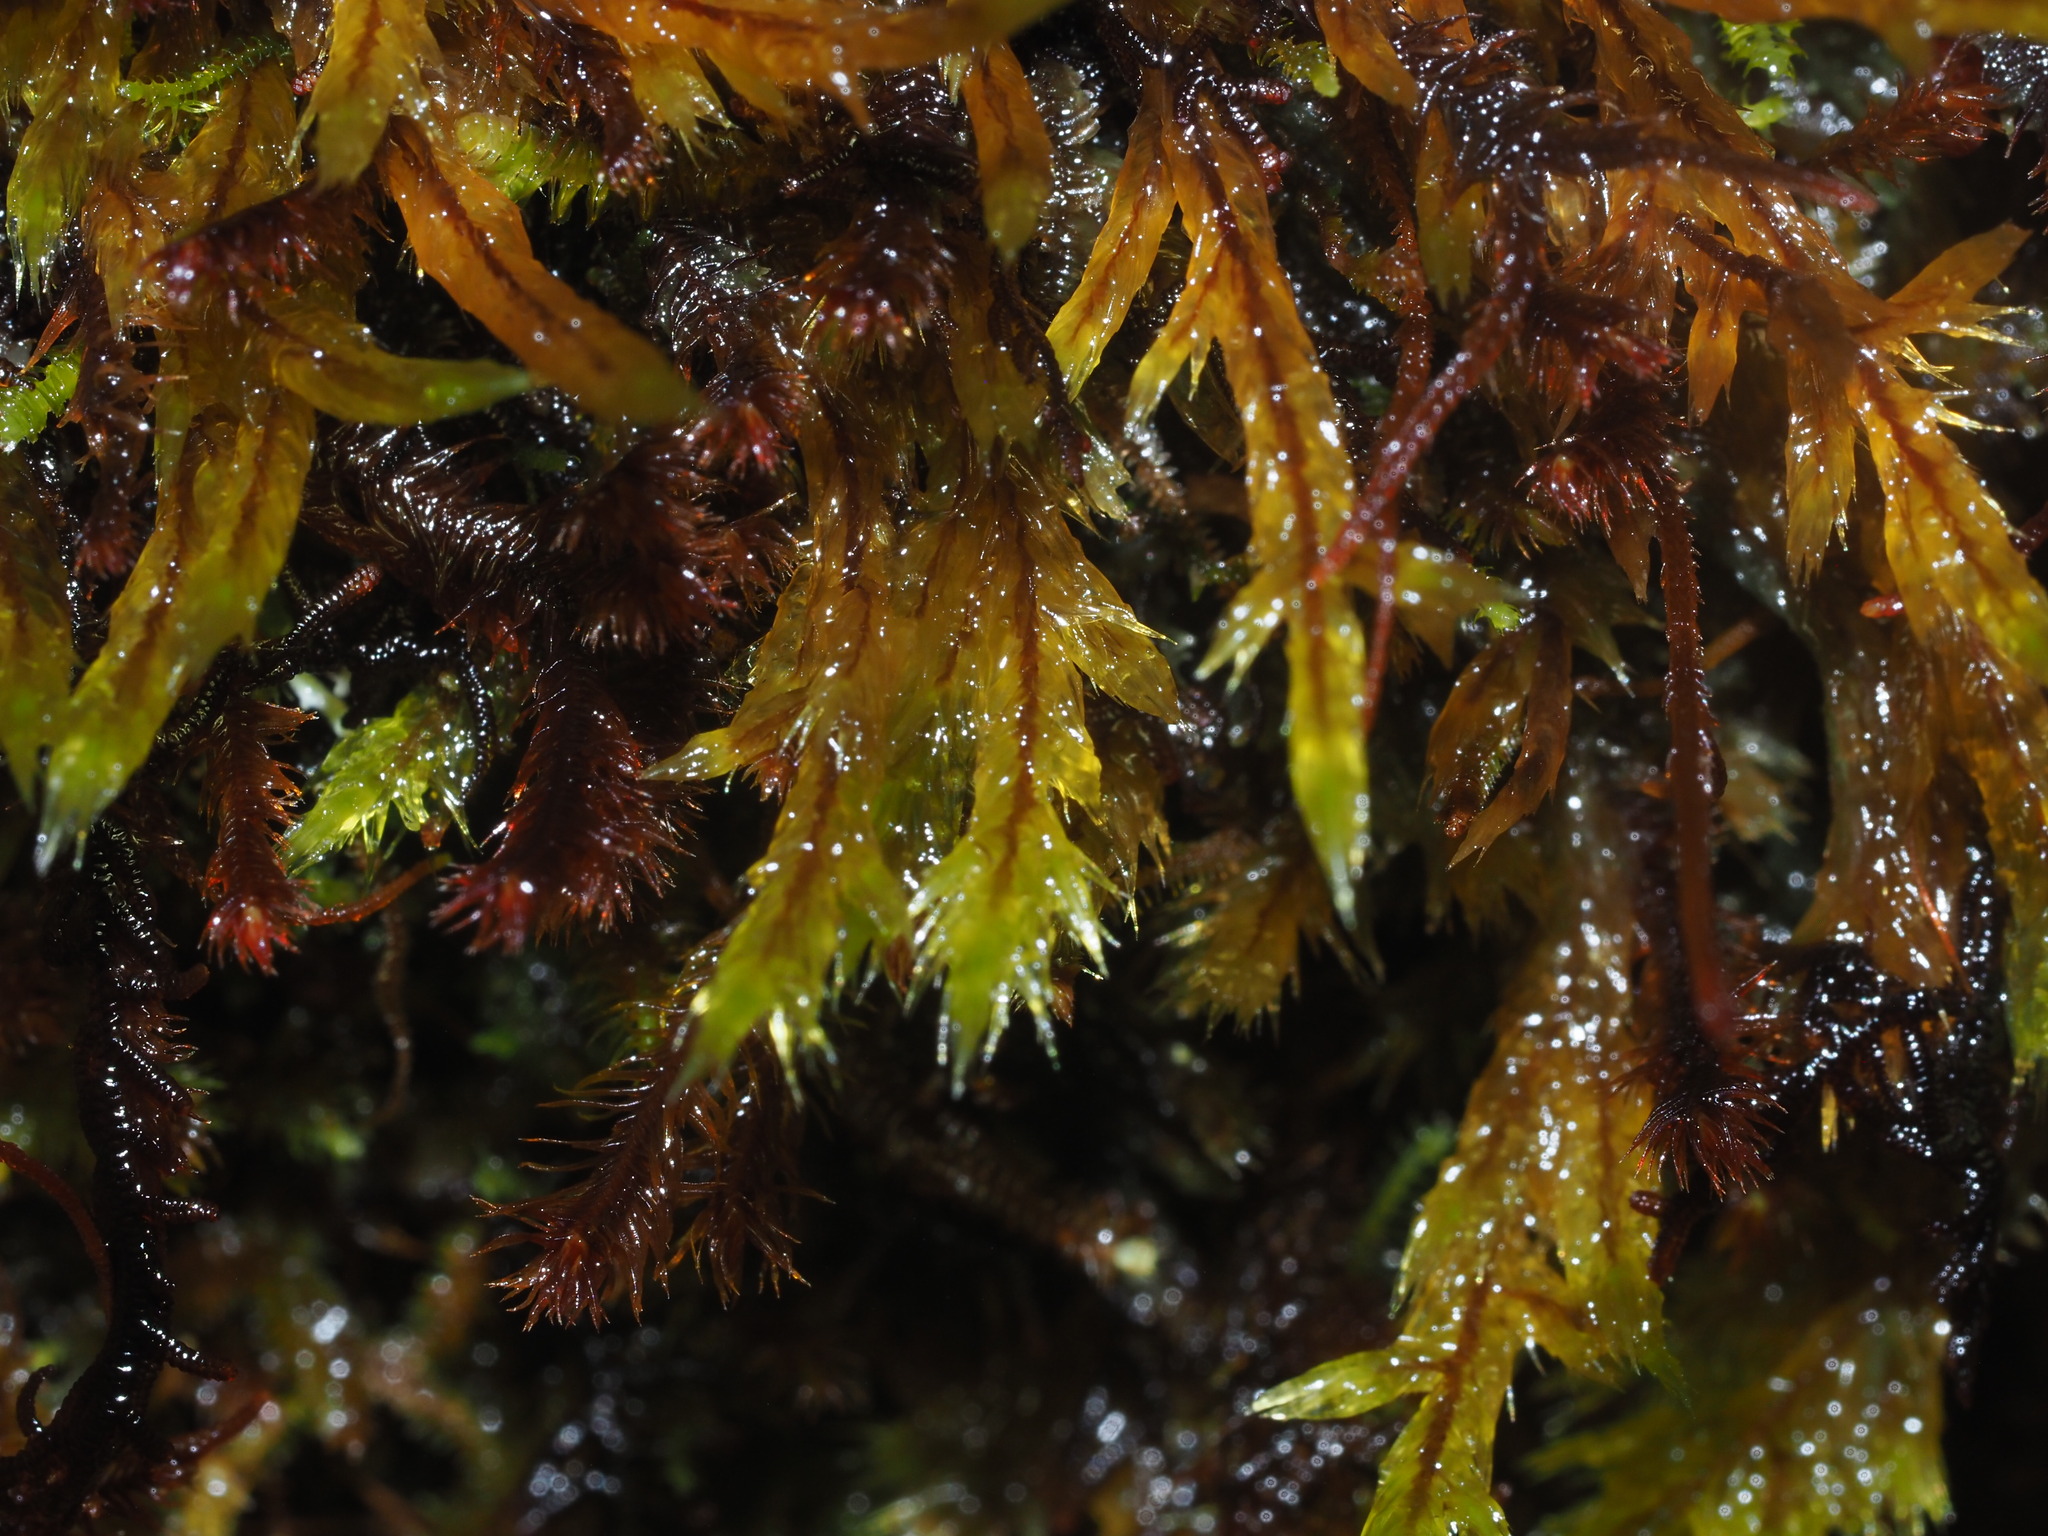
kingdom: Plantae
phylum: Bryophyta
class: Bryopsida
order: Hypnales
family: Sematophyllaceae
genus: Acroporium
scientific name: Acroporium fuscoflavum
